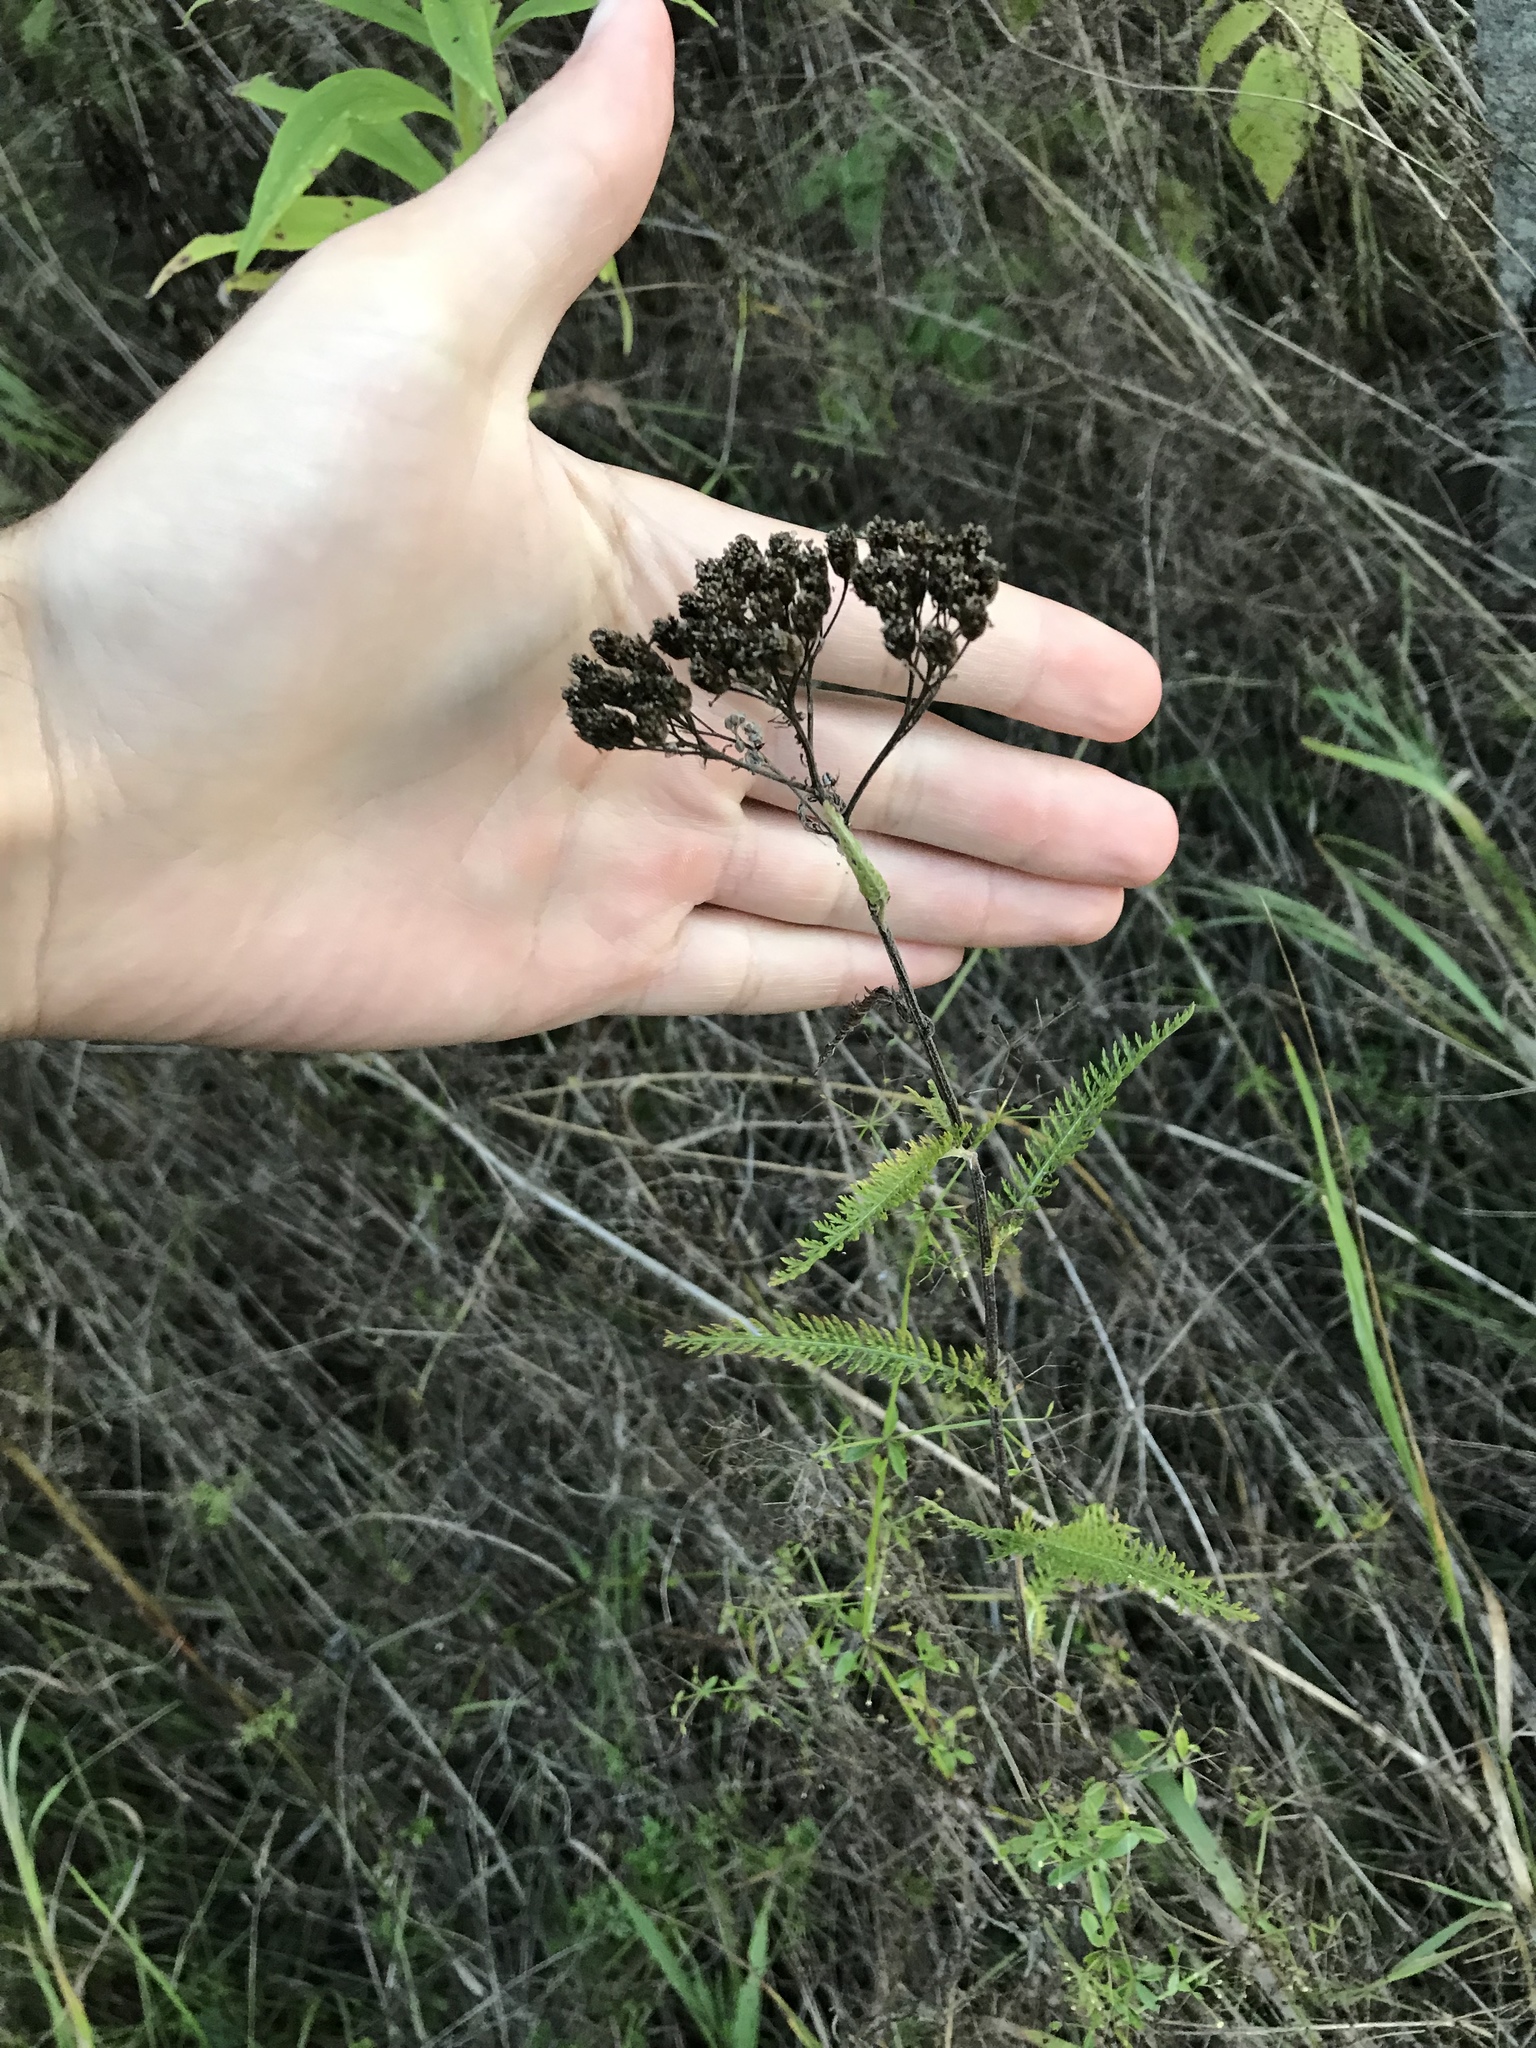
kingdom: Plantae
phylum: Tracheophyta
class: Magnoliopsida
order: Asterales
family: Asteraceae
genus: Achillea
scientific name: Achillea millefolium
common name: Yarrow
